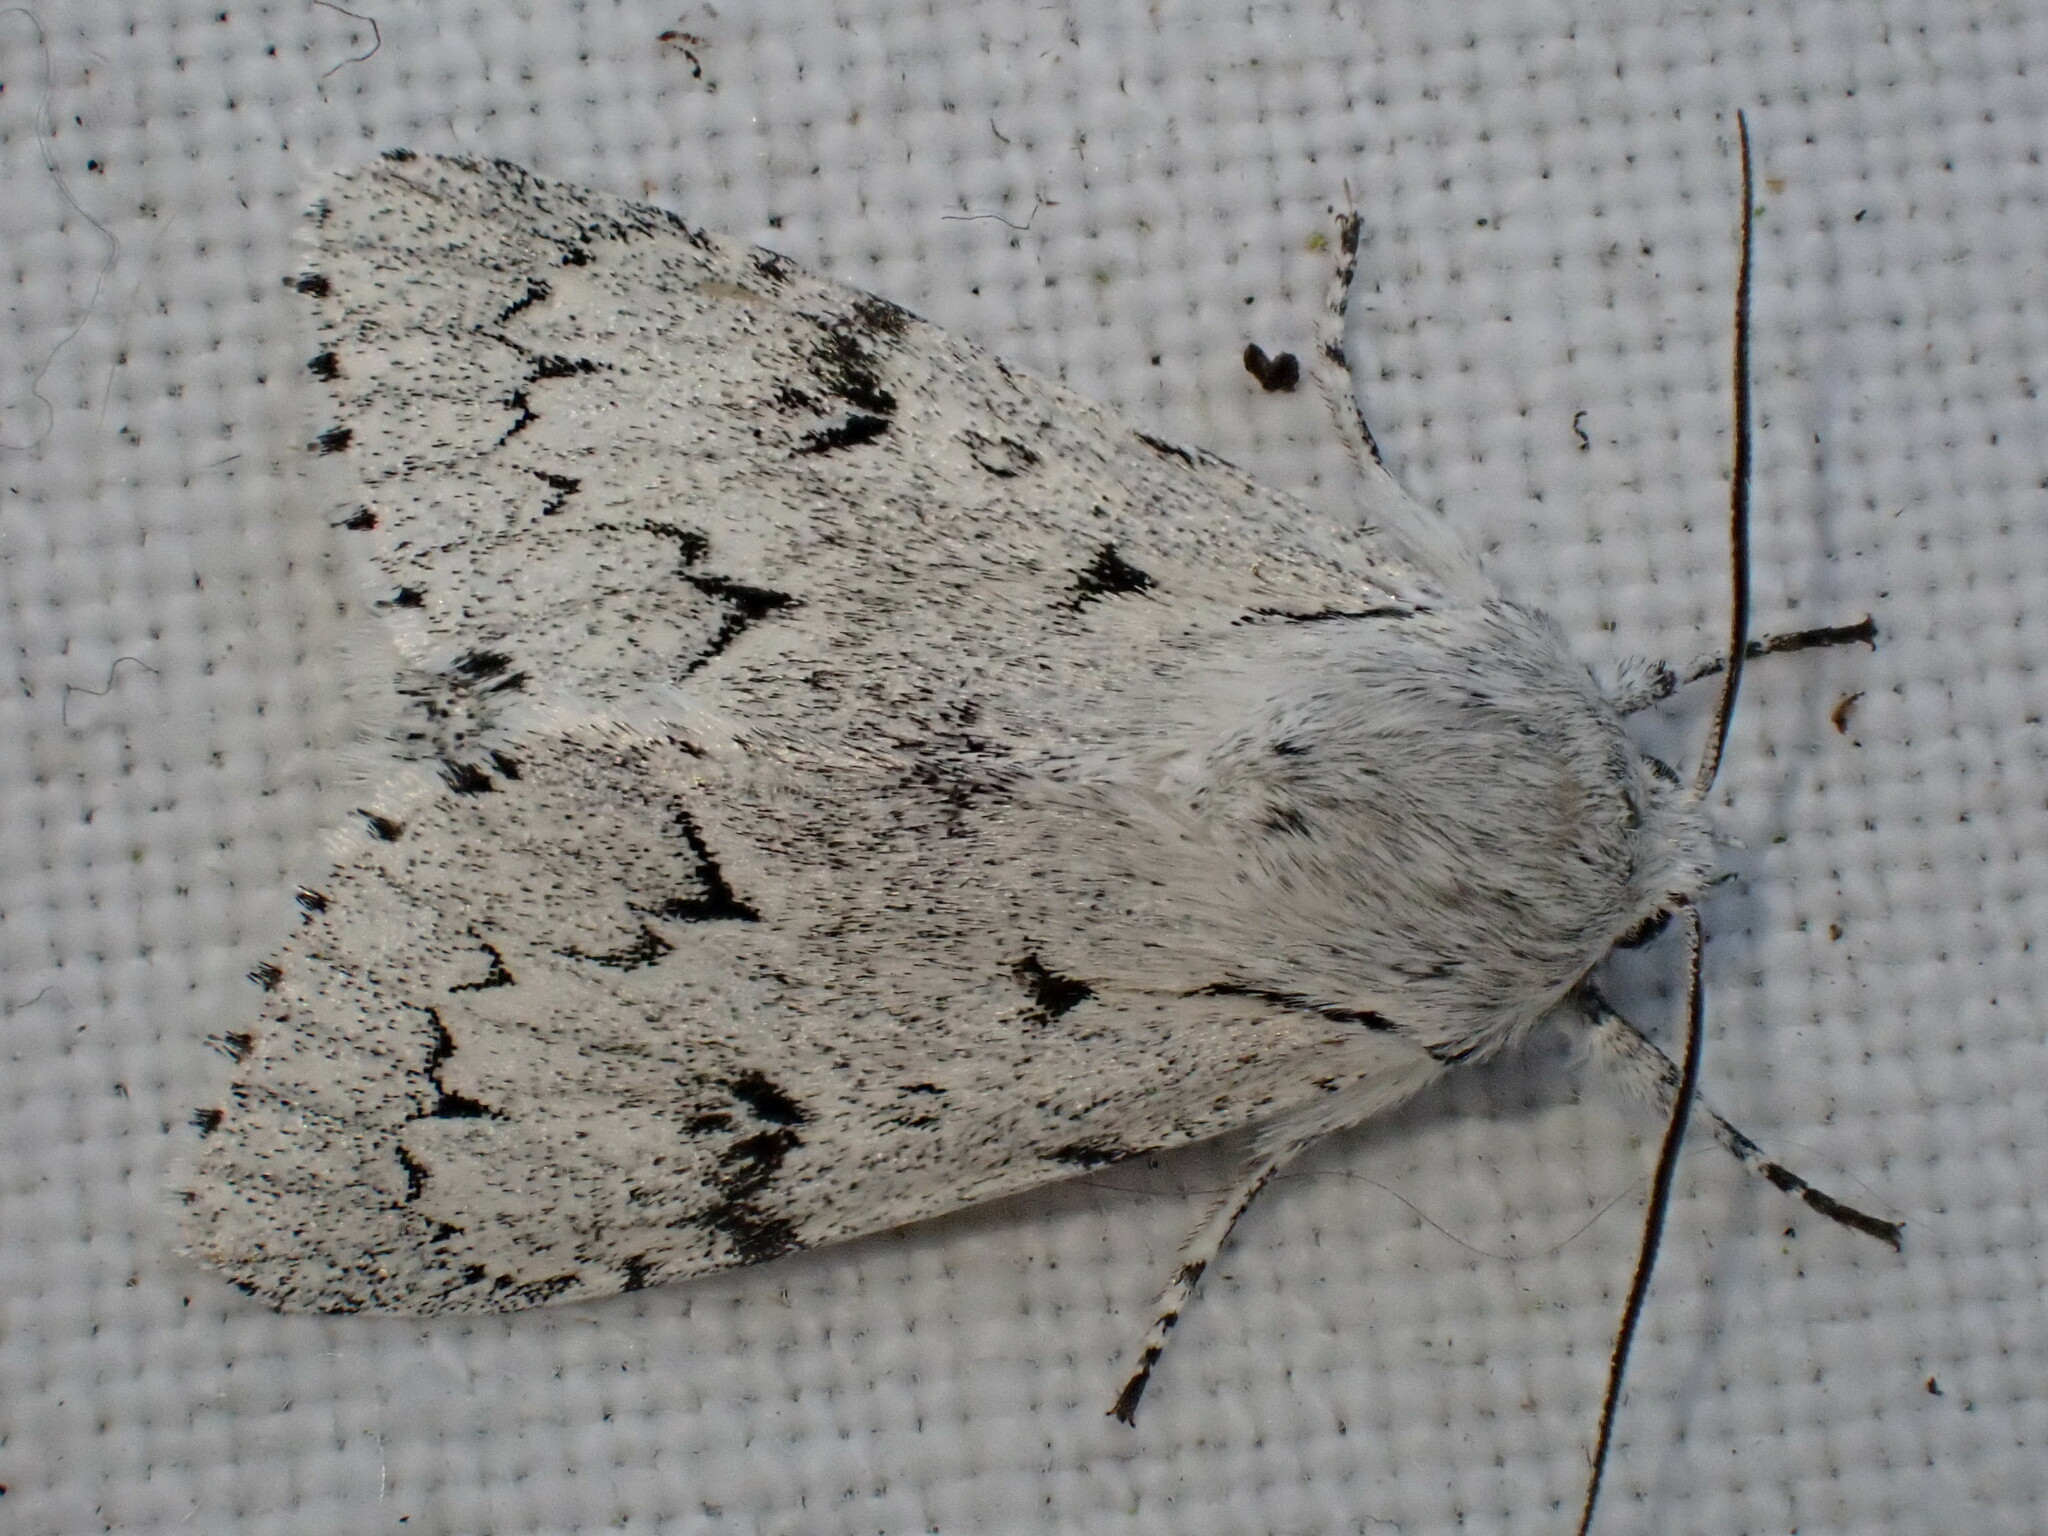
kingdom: Animalia
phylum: Arthropoda
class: Insecta
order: Lepidoptera
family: Noctuidae
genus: Acronicta
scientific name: Acronicta leporina
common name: Miller
